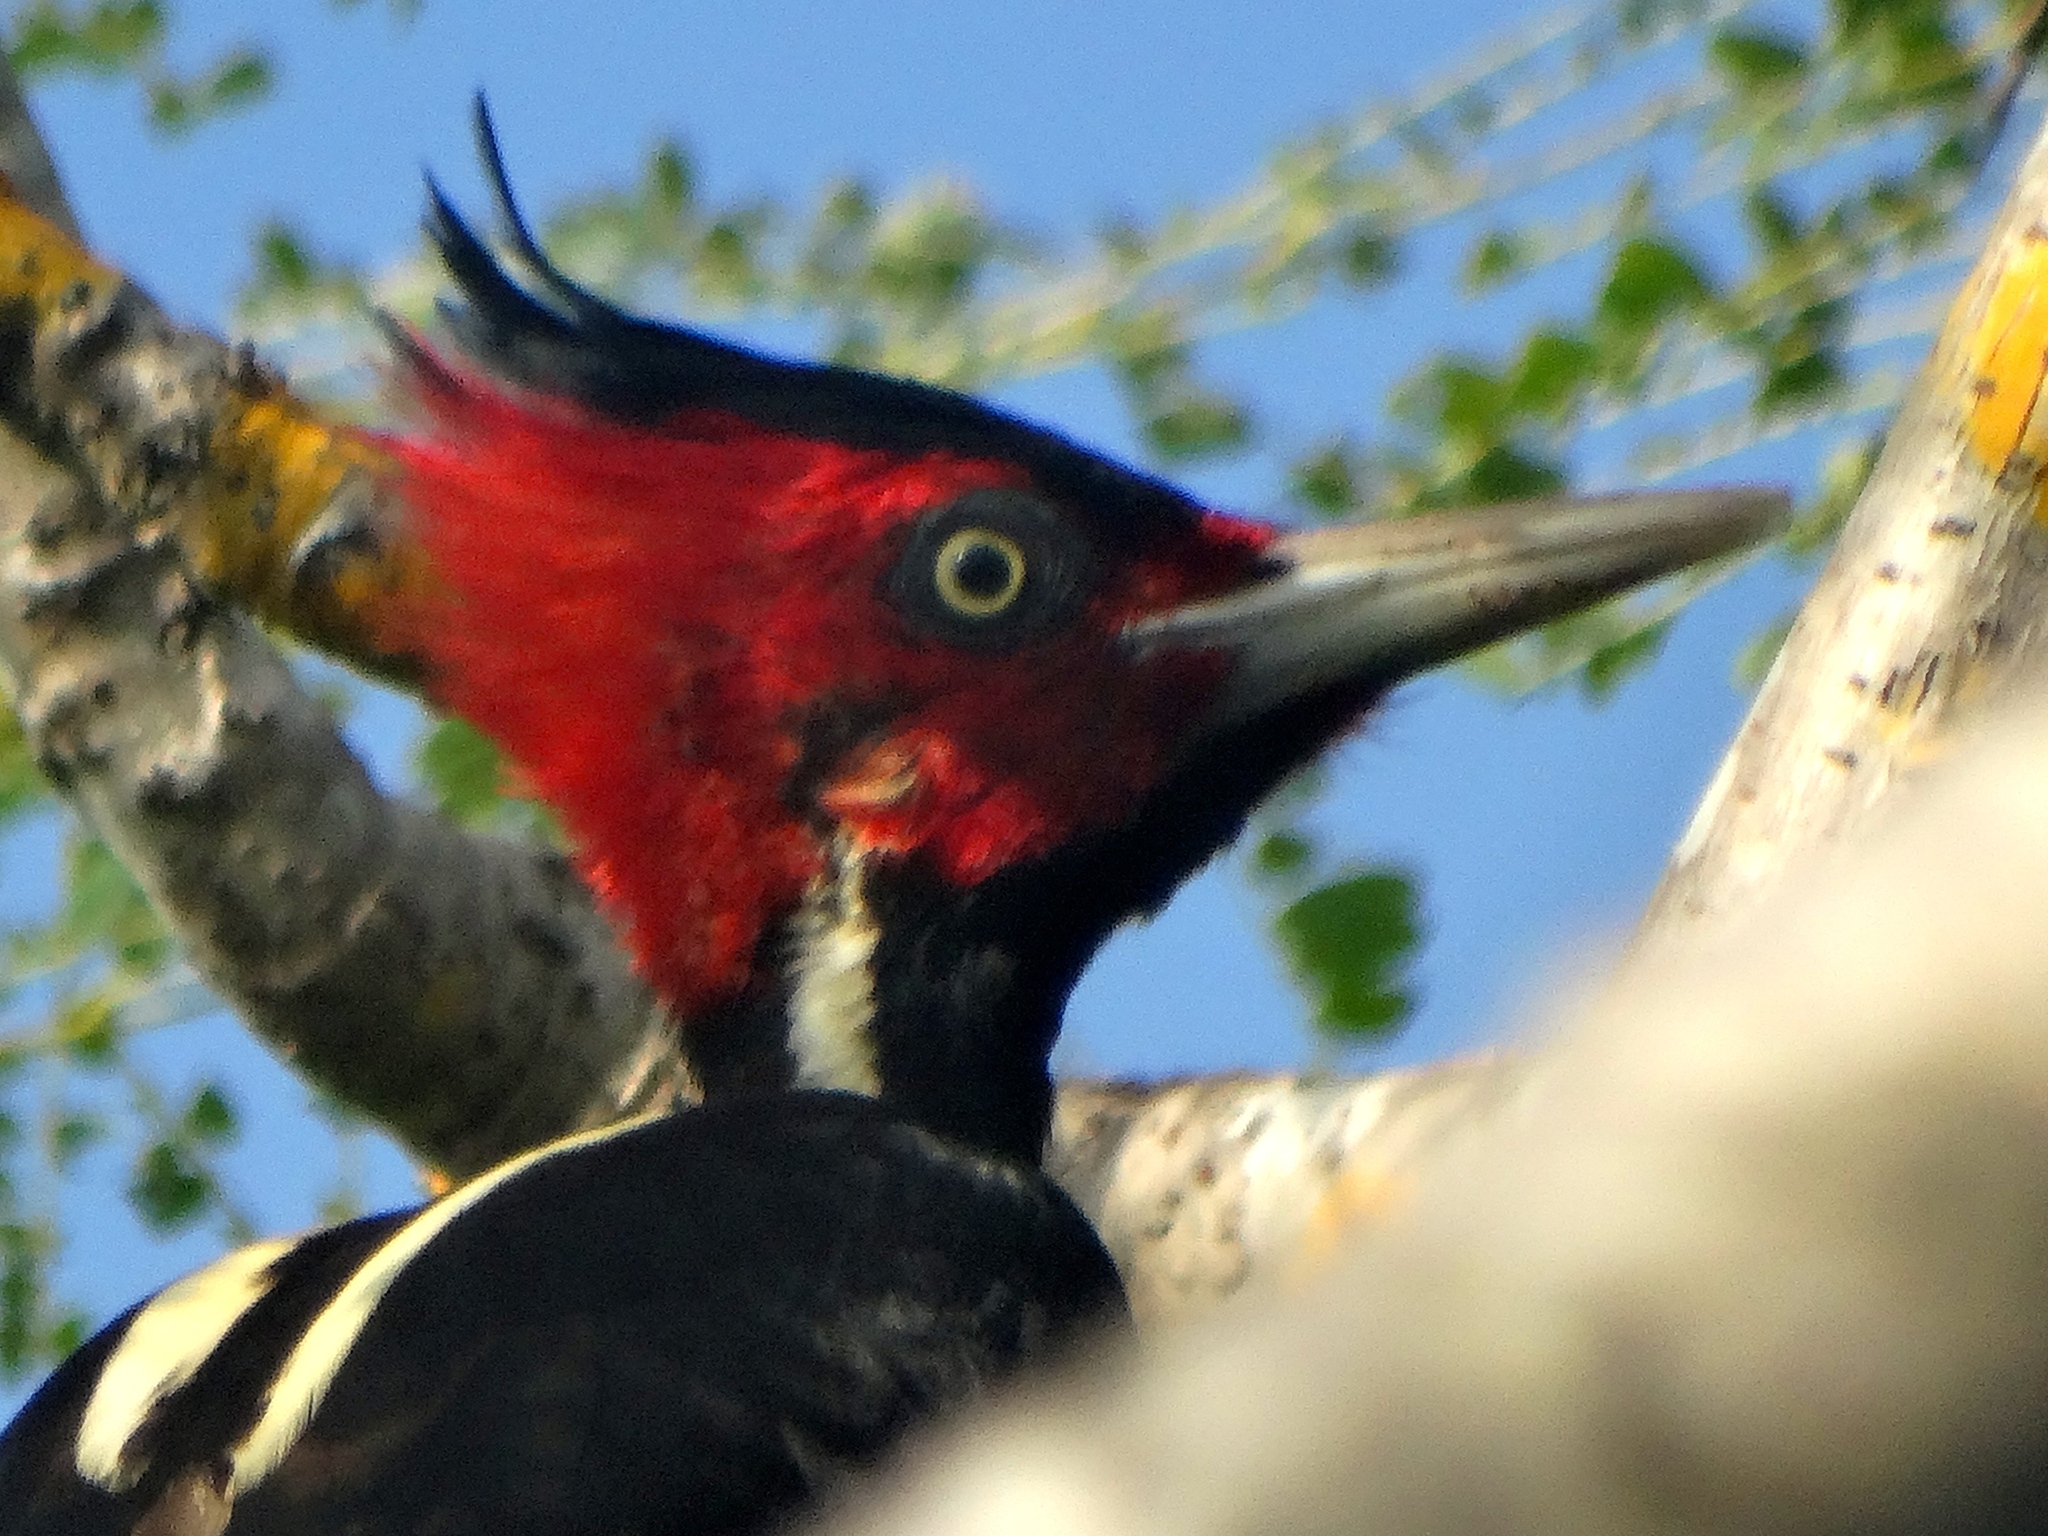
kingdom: Animalia
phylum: Chordata
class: Aves
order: Piciformes
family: Picidae
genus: Campephilus
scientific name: Campephilus guatemalensis
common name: Pale-billed woodpecker
